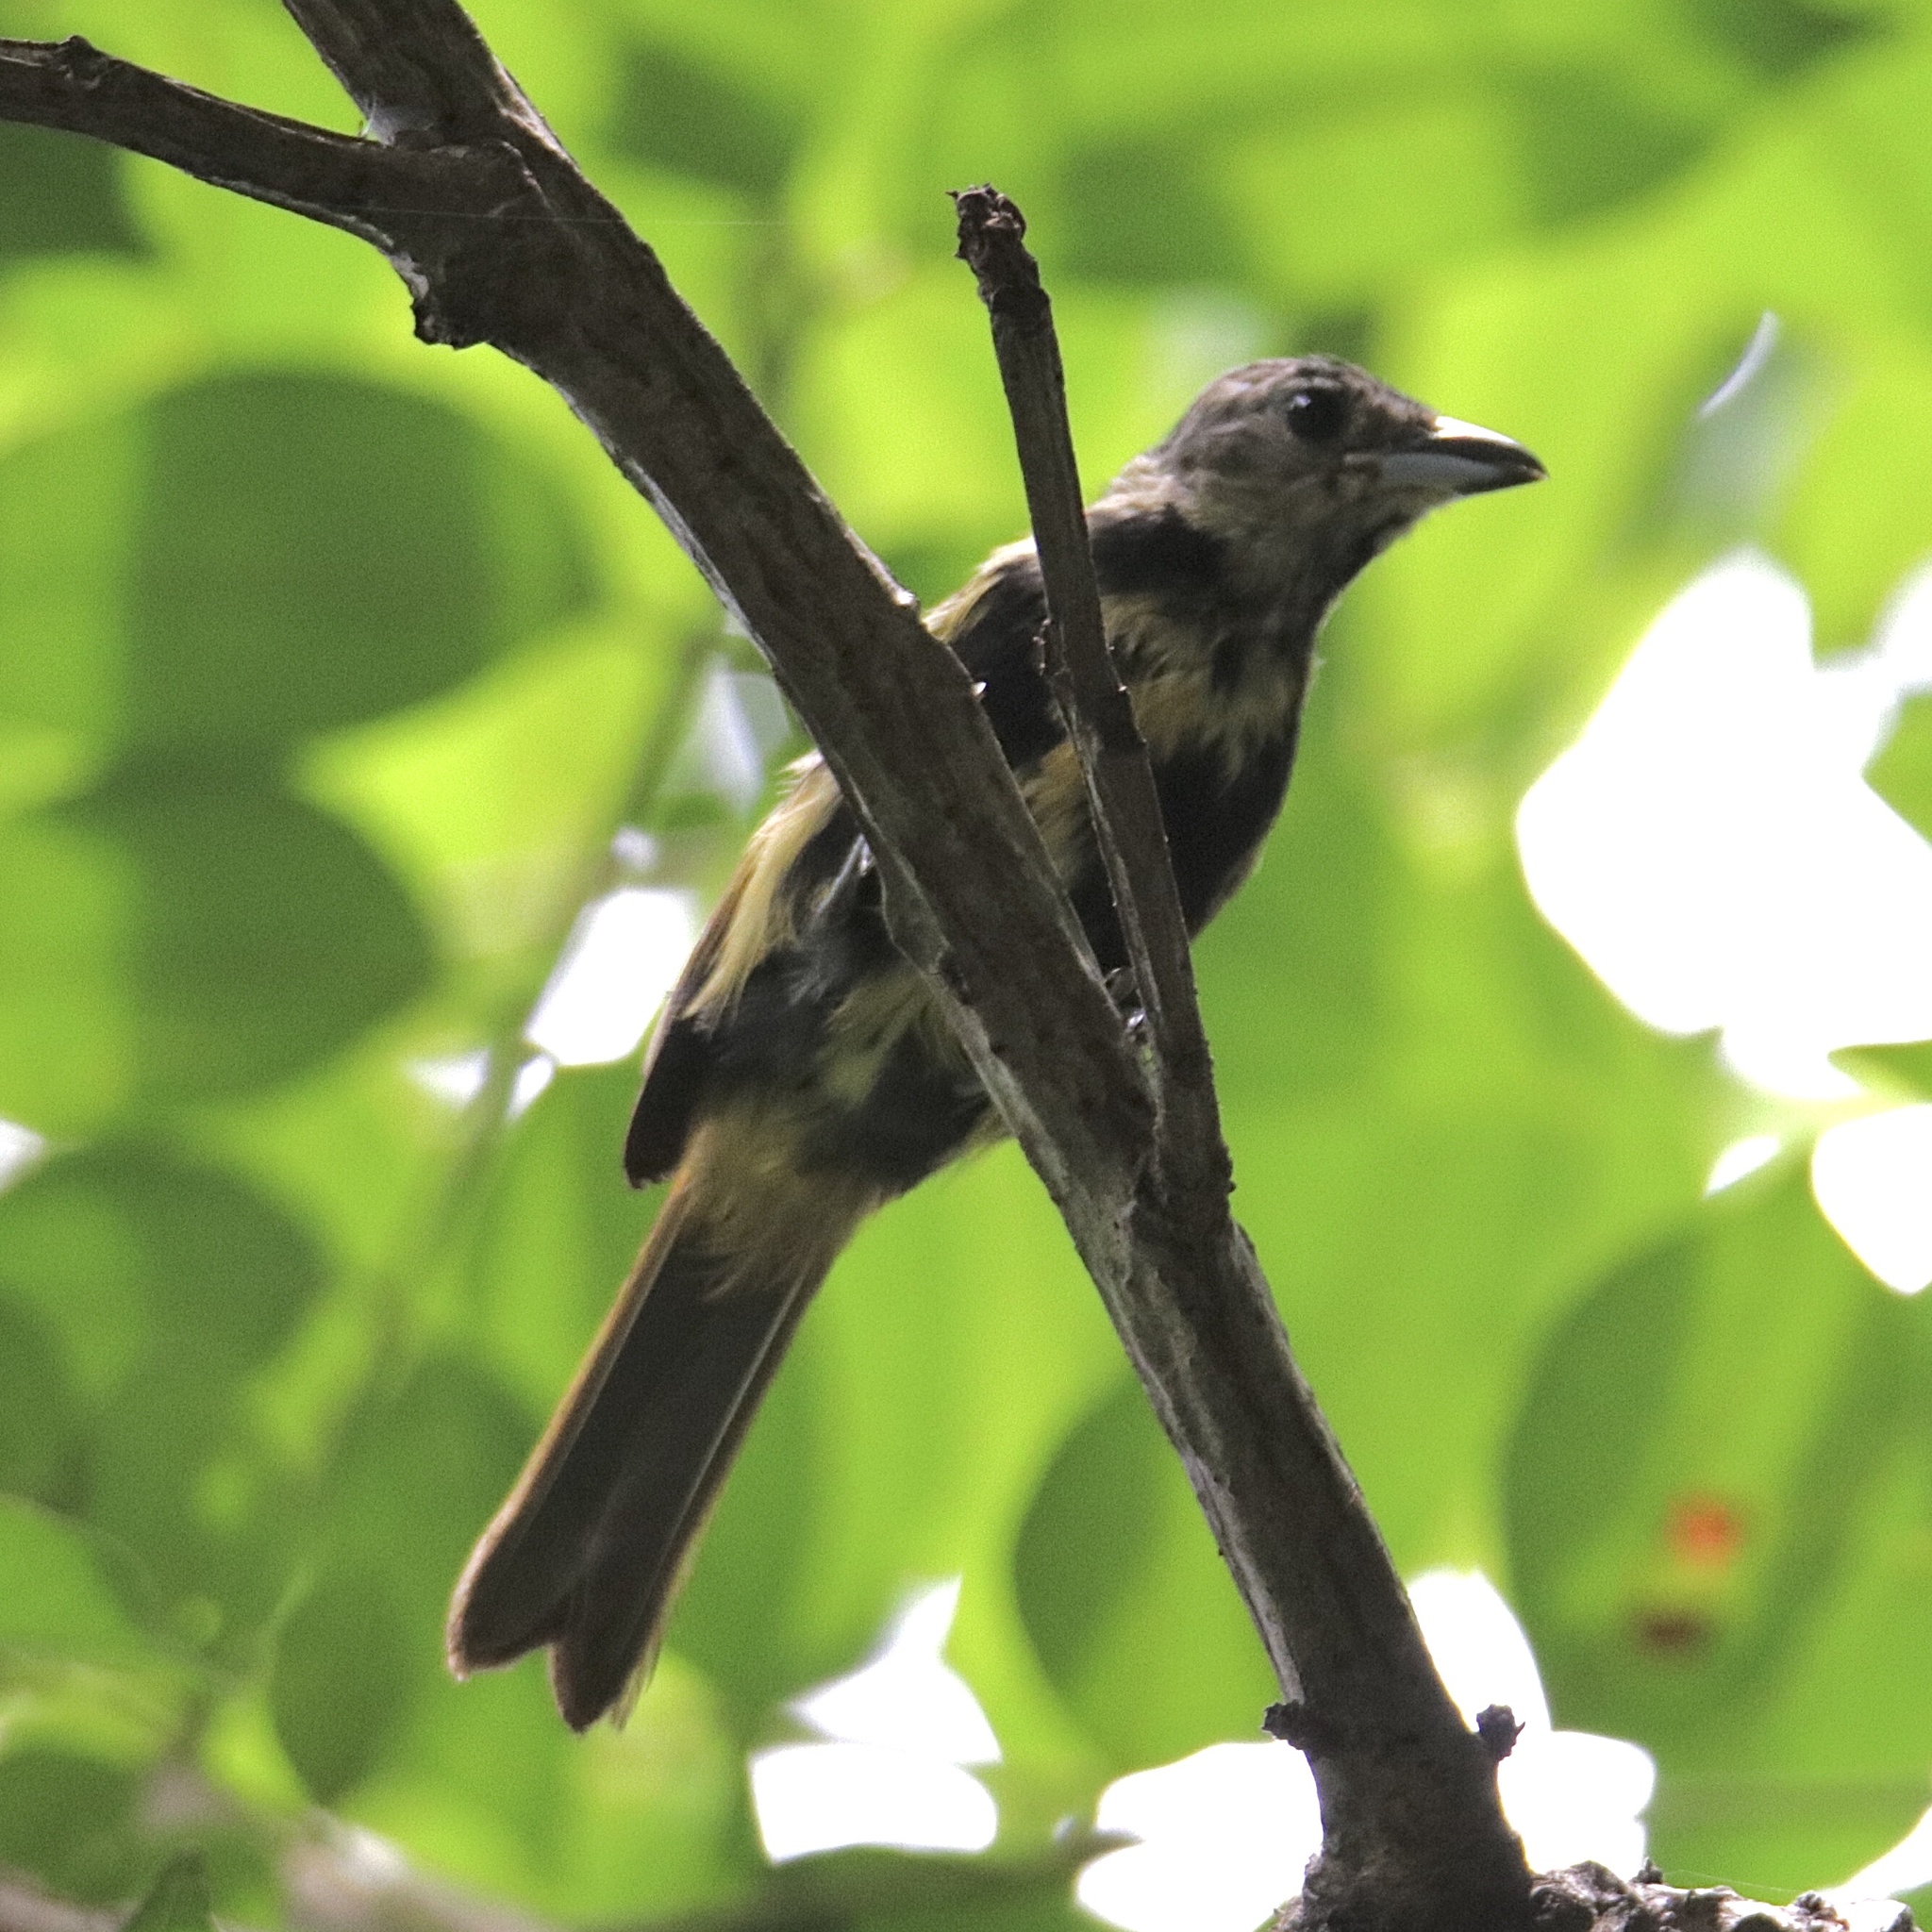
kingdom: Animalia
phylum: Chordata
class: Aves
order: Passeriformes
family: Thraupidae
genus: Loriotus
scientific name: Loriotus luctuosus
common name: White-shouldered tanager
